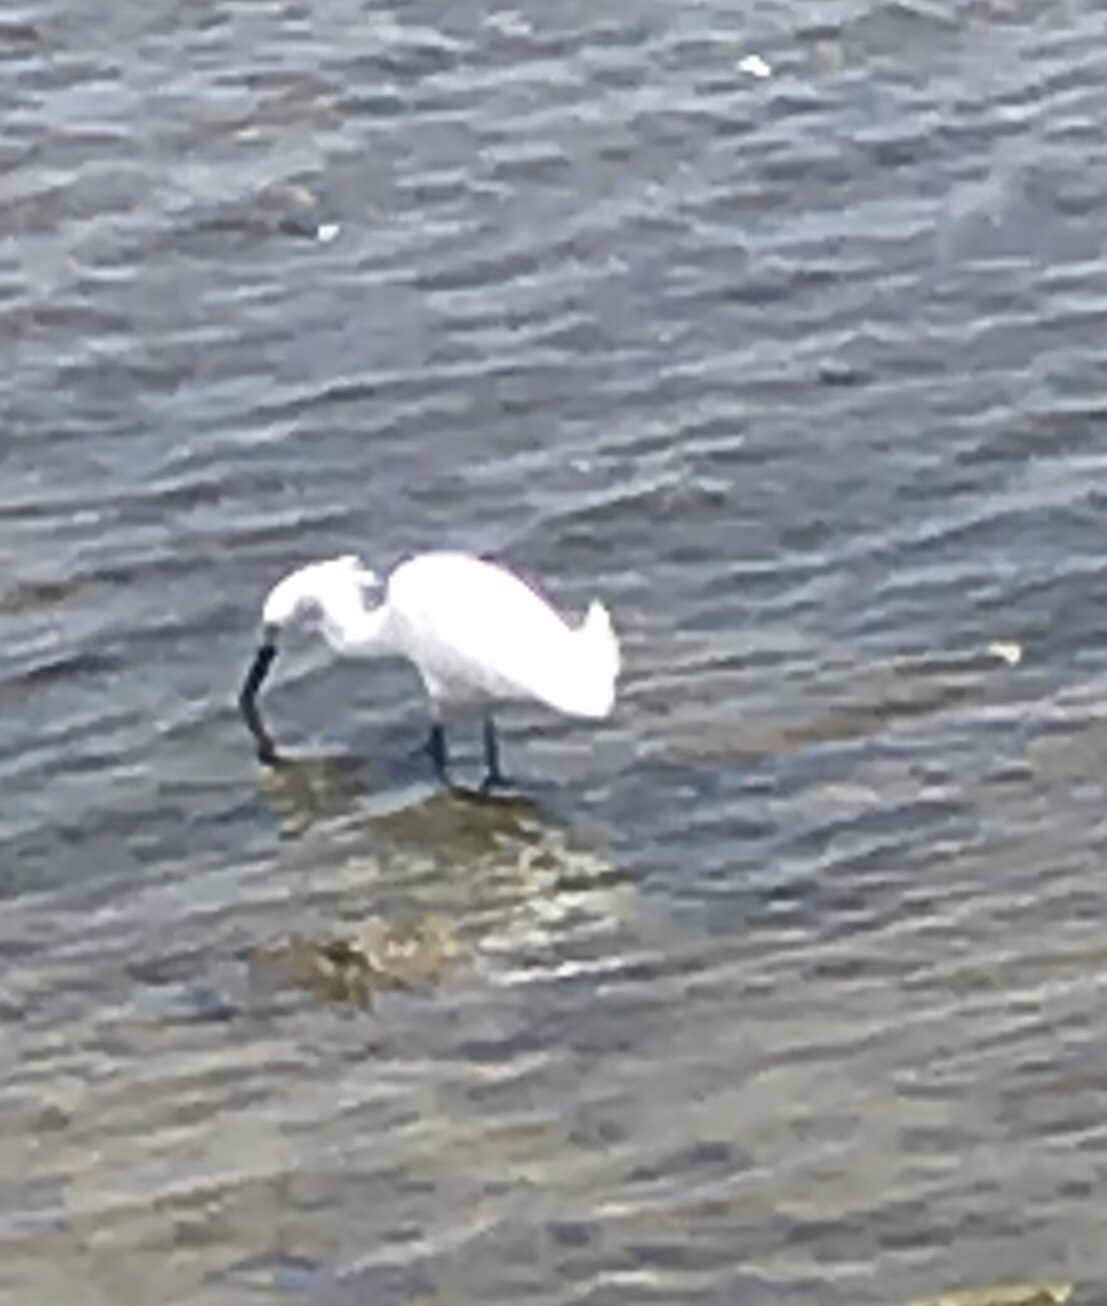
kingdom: Animalia
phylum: Chordata
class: Aves
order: Pelecaniformes
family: Ardeidae
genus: Egretta
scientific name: Egretta thula
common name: Snowy egret
